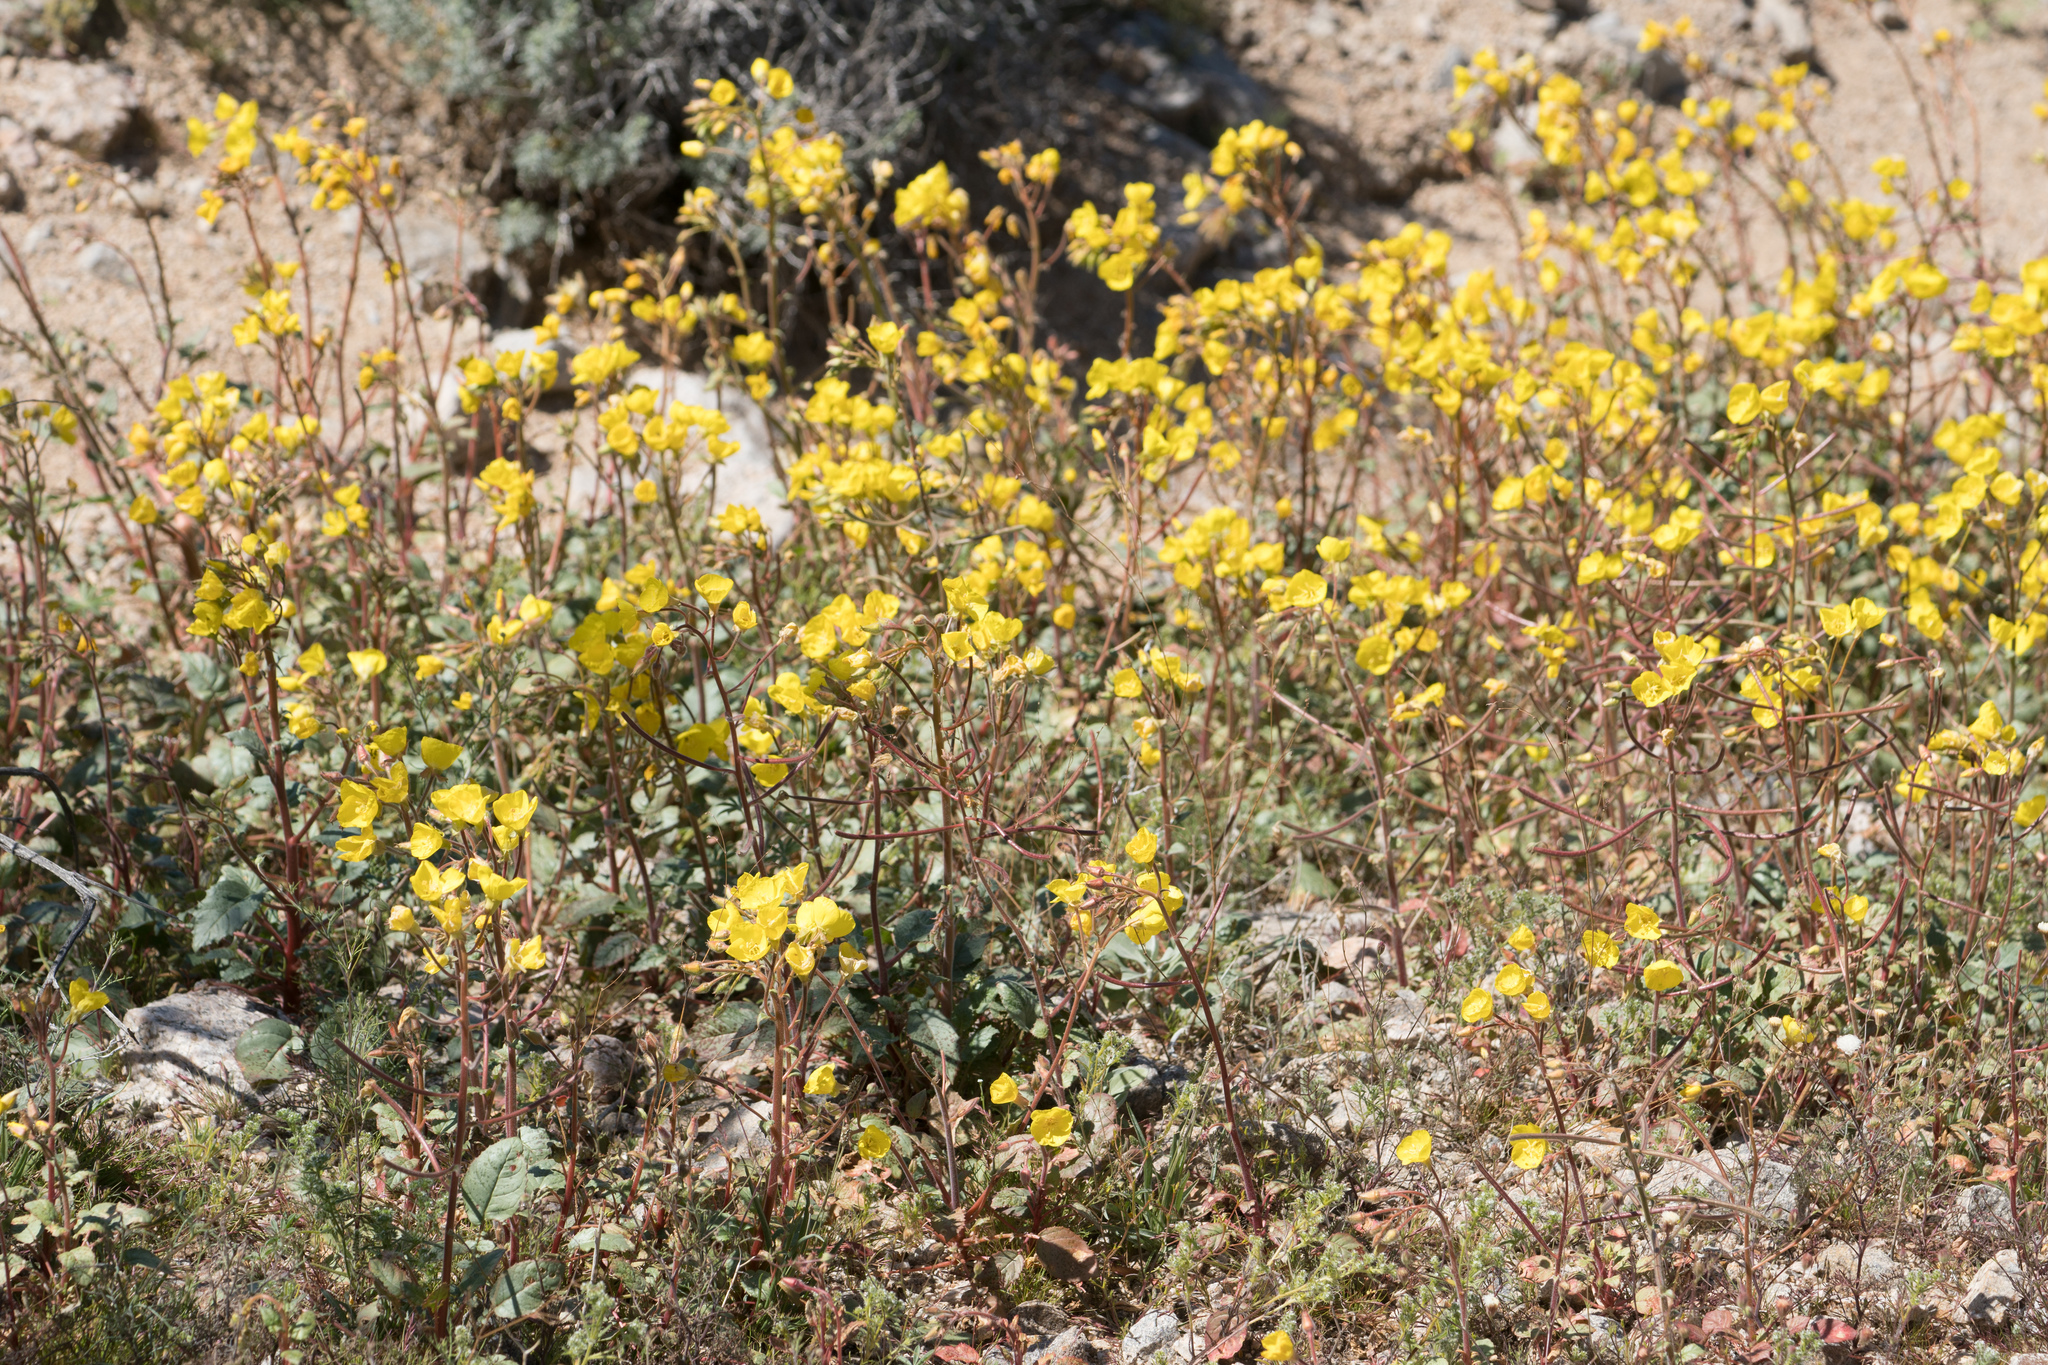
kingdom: Plantae
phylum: Tracheophyta
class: Magnoliopsida
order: Myrtales
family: Onagraceae
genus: Chylismia
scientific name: Chylismia brevipes
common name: Yellow cups
